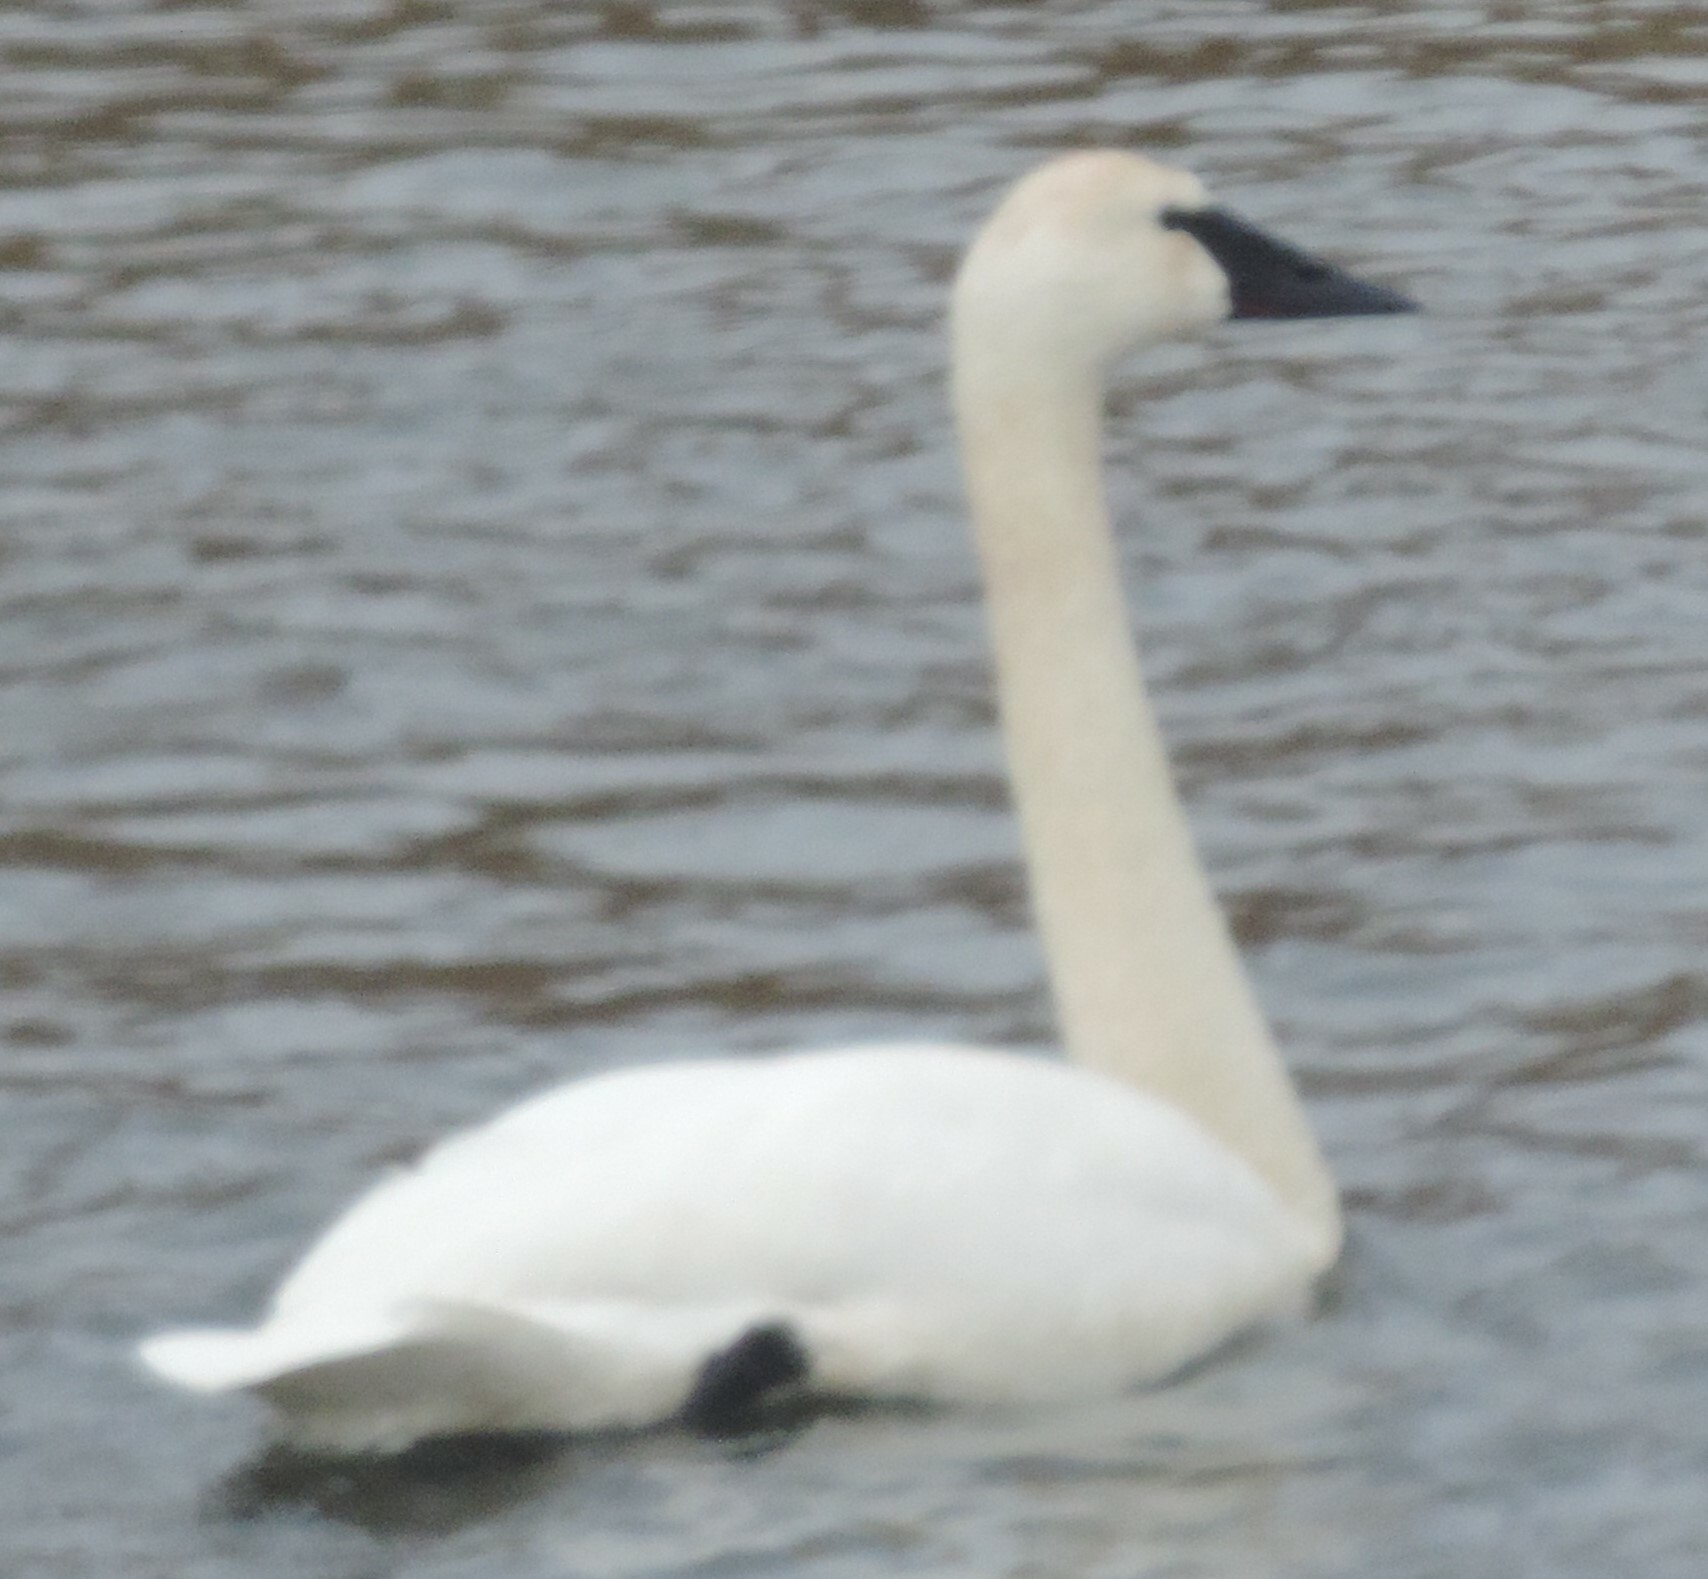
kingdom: Animalia
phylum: Chordata
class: Aves
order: Anseriformes
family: Anatidae
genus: Cygnus
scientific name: Cygnus buccinator
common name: Trumpeter swan
